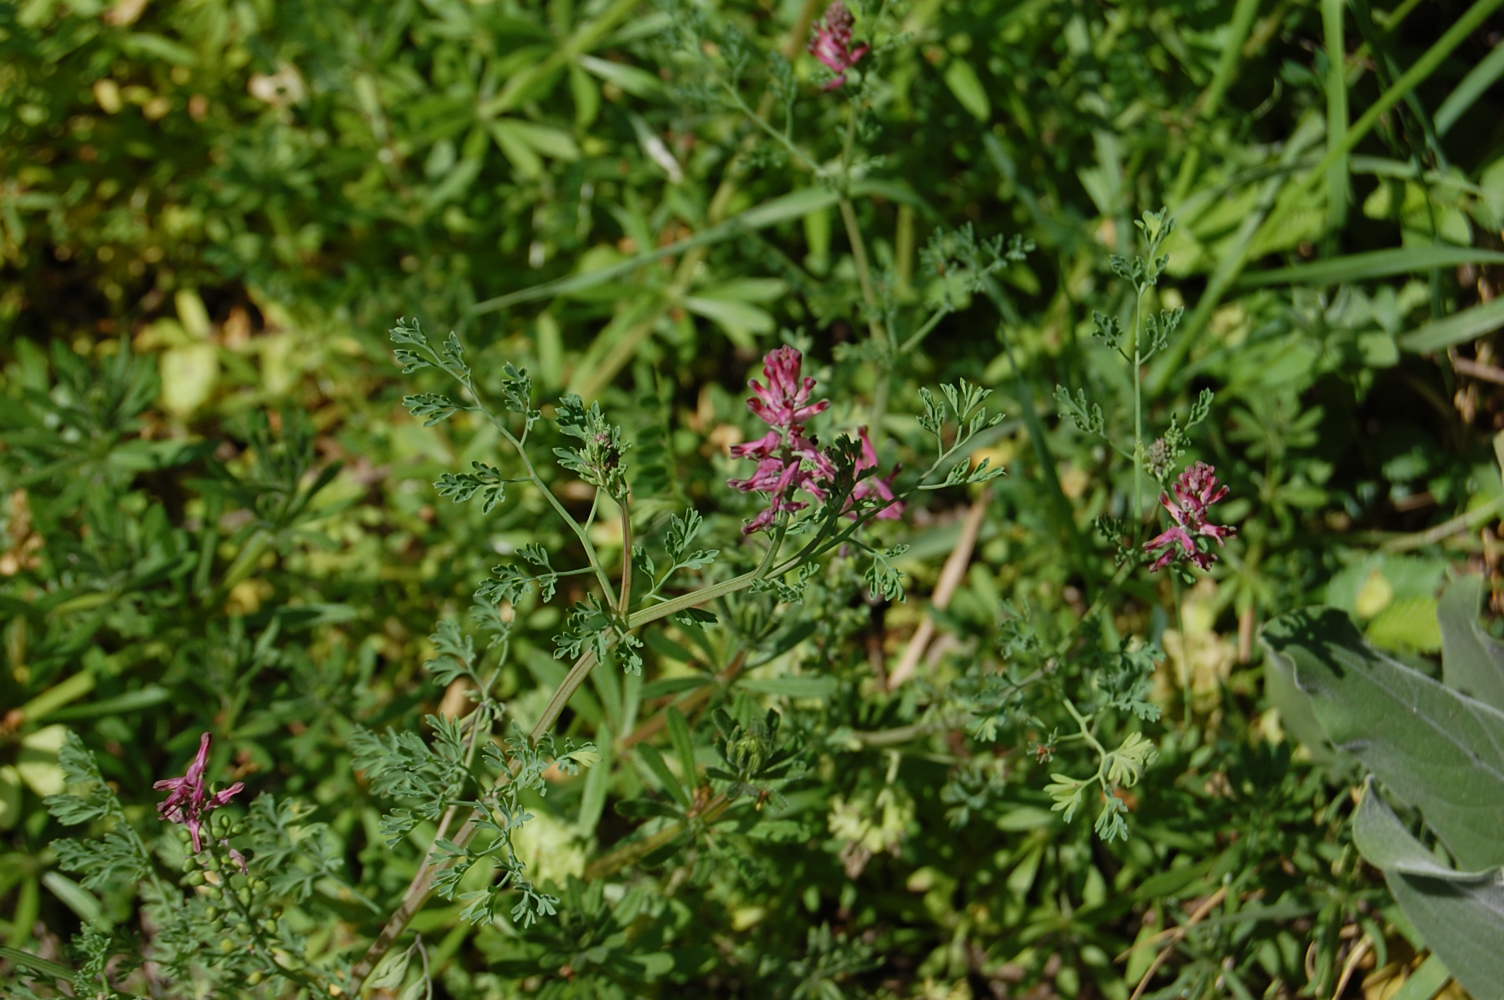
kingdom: Plantae
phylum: Tracheophyta
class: Magnoliopsida
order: Ranunculales
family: Papaveraceae
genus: Fumaria
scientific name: Fumaria officinalis
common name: Common fumitory
